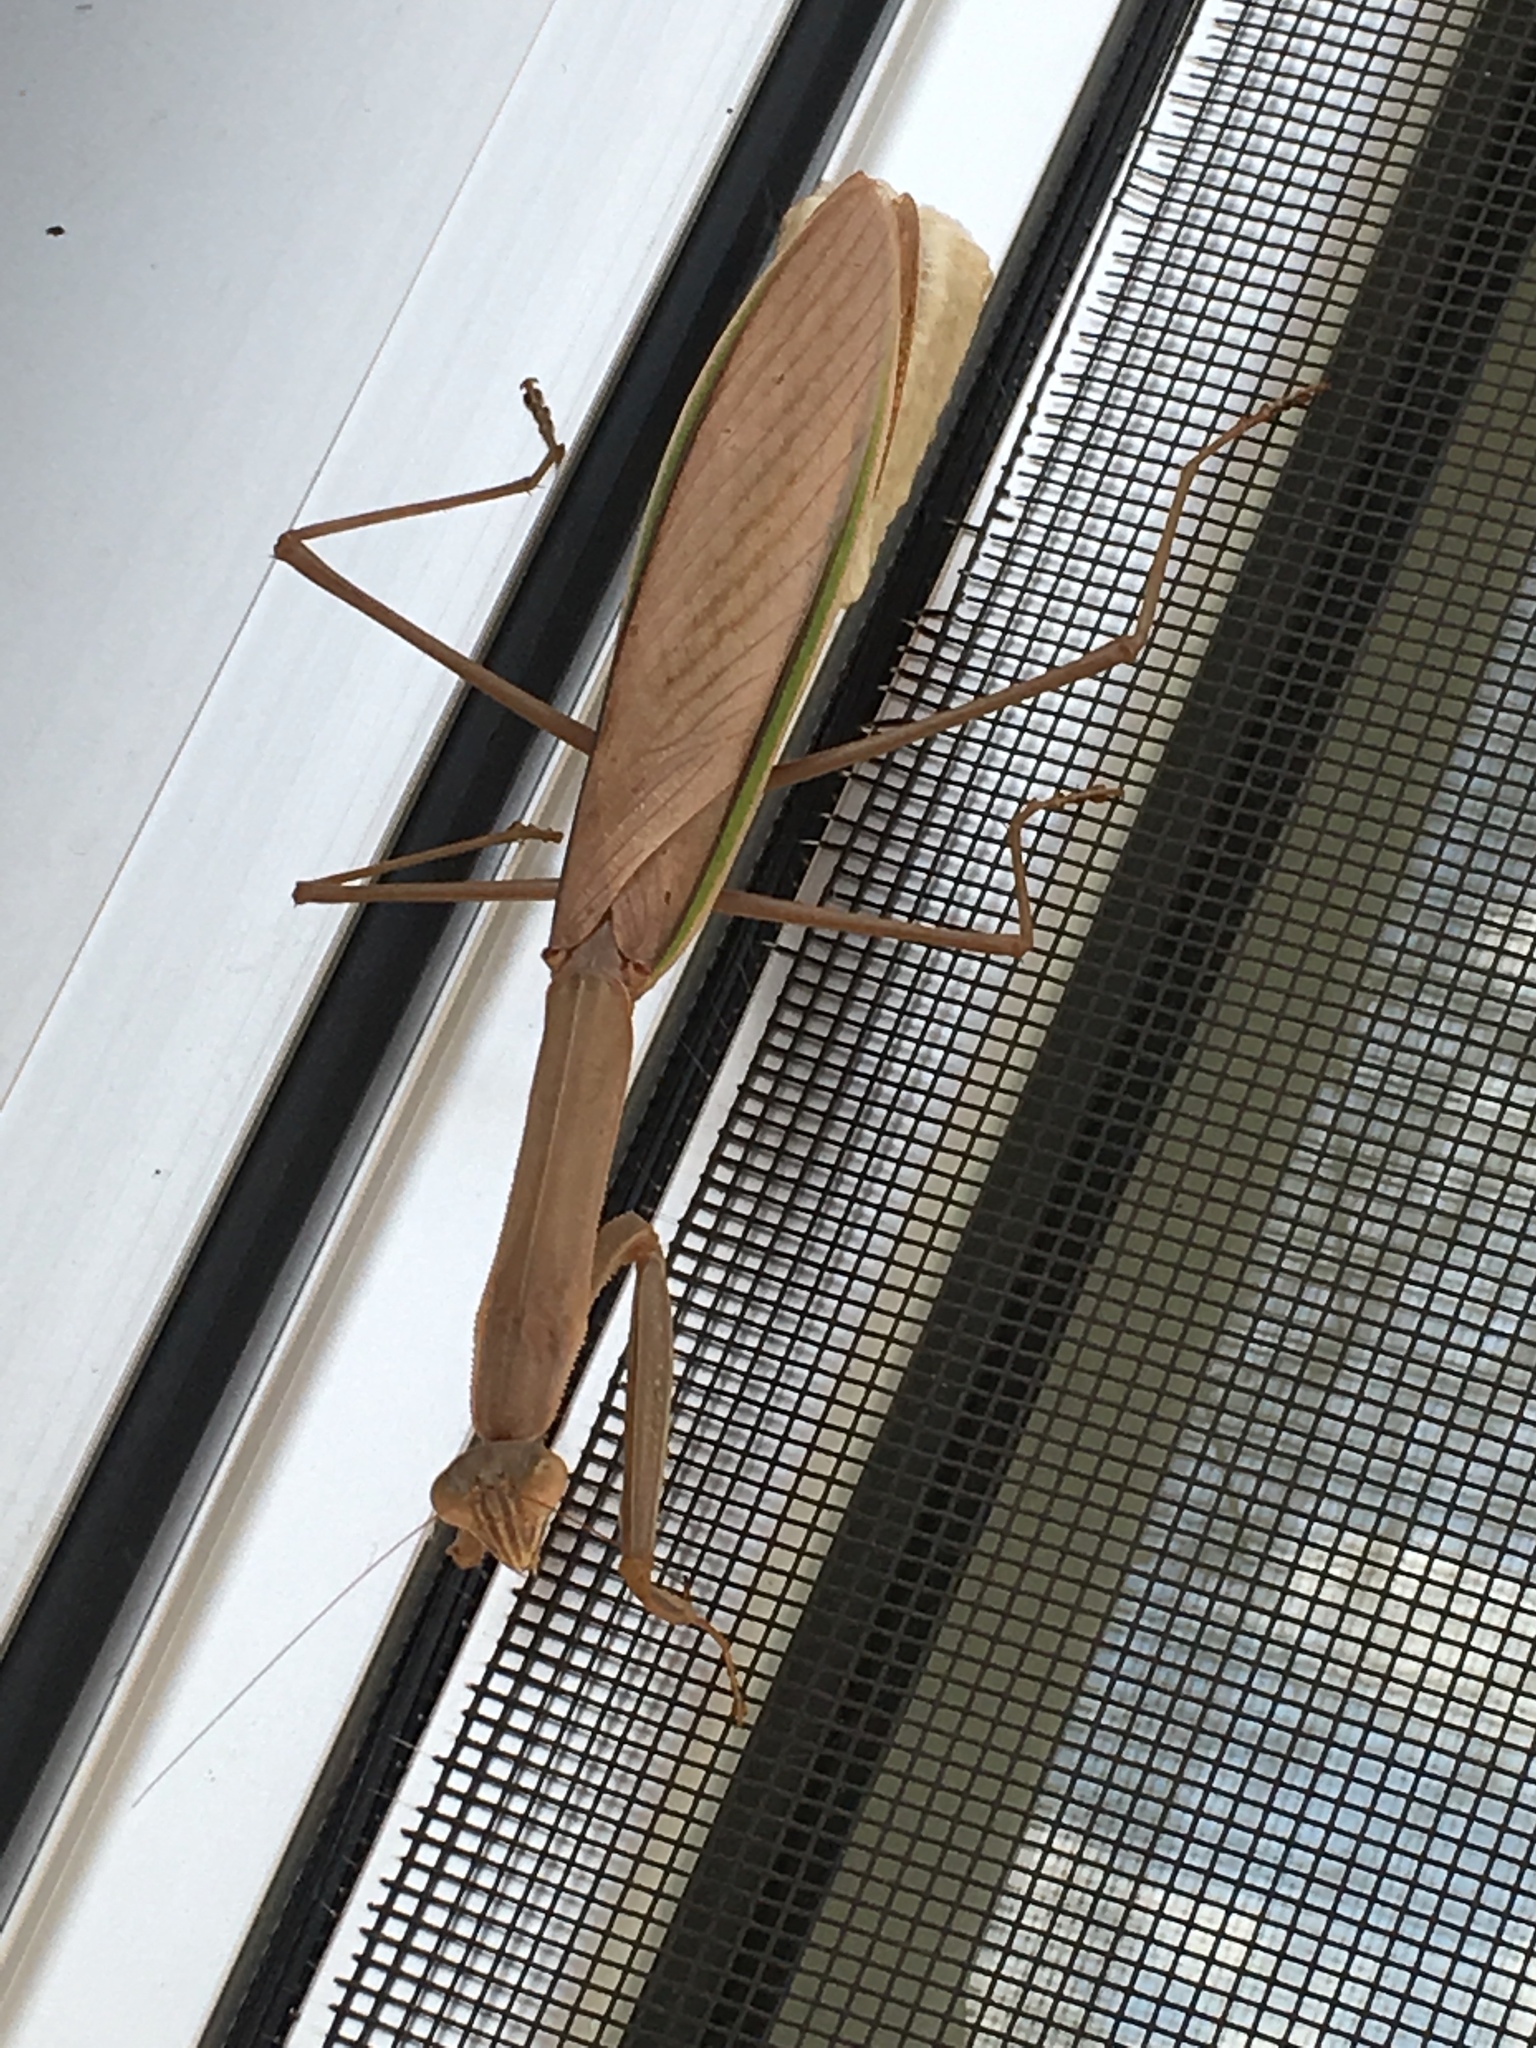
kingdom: Animalia
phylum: Arthropoda
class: Insecta
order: Mantodea
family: Mantidae
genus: Tenodera
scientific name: Tenodera sinensis
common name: Chinese mantis
